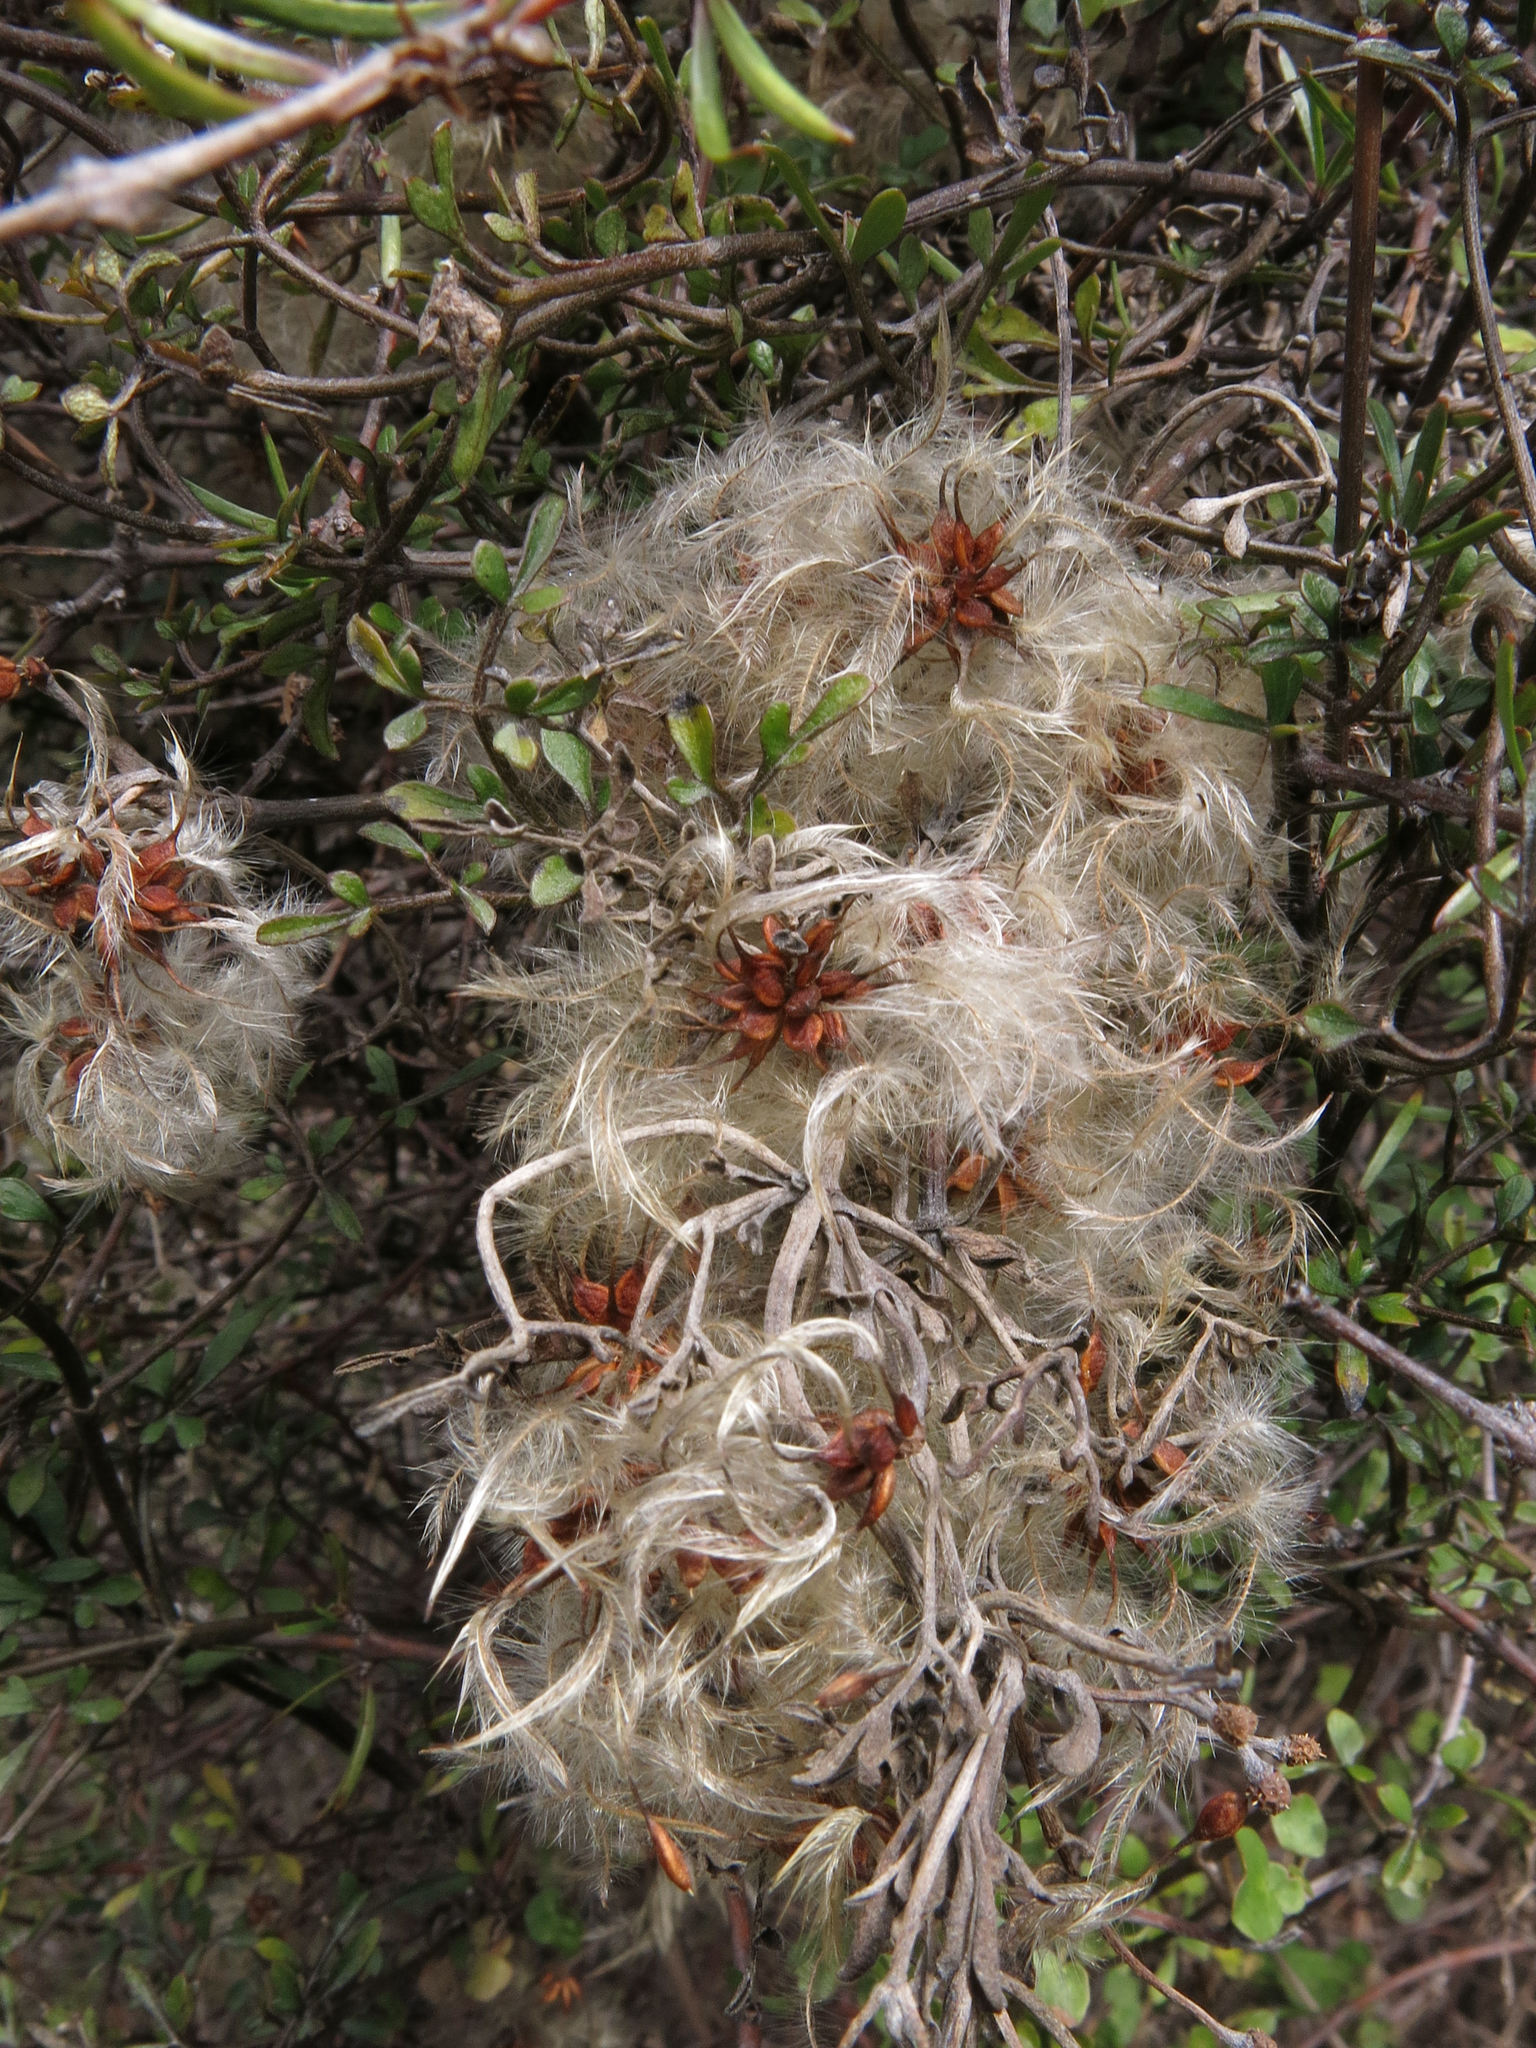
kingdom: Plantae
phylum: Tracheophyta
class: Magnoliopsida
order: Ranunculales
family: Ranunculaceae
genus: Clematis
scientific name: Clematis marata
